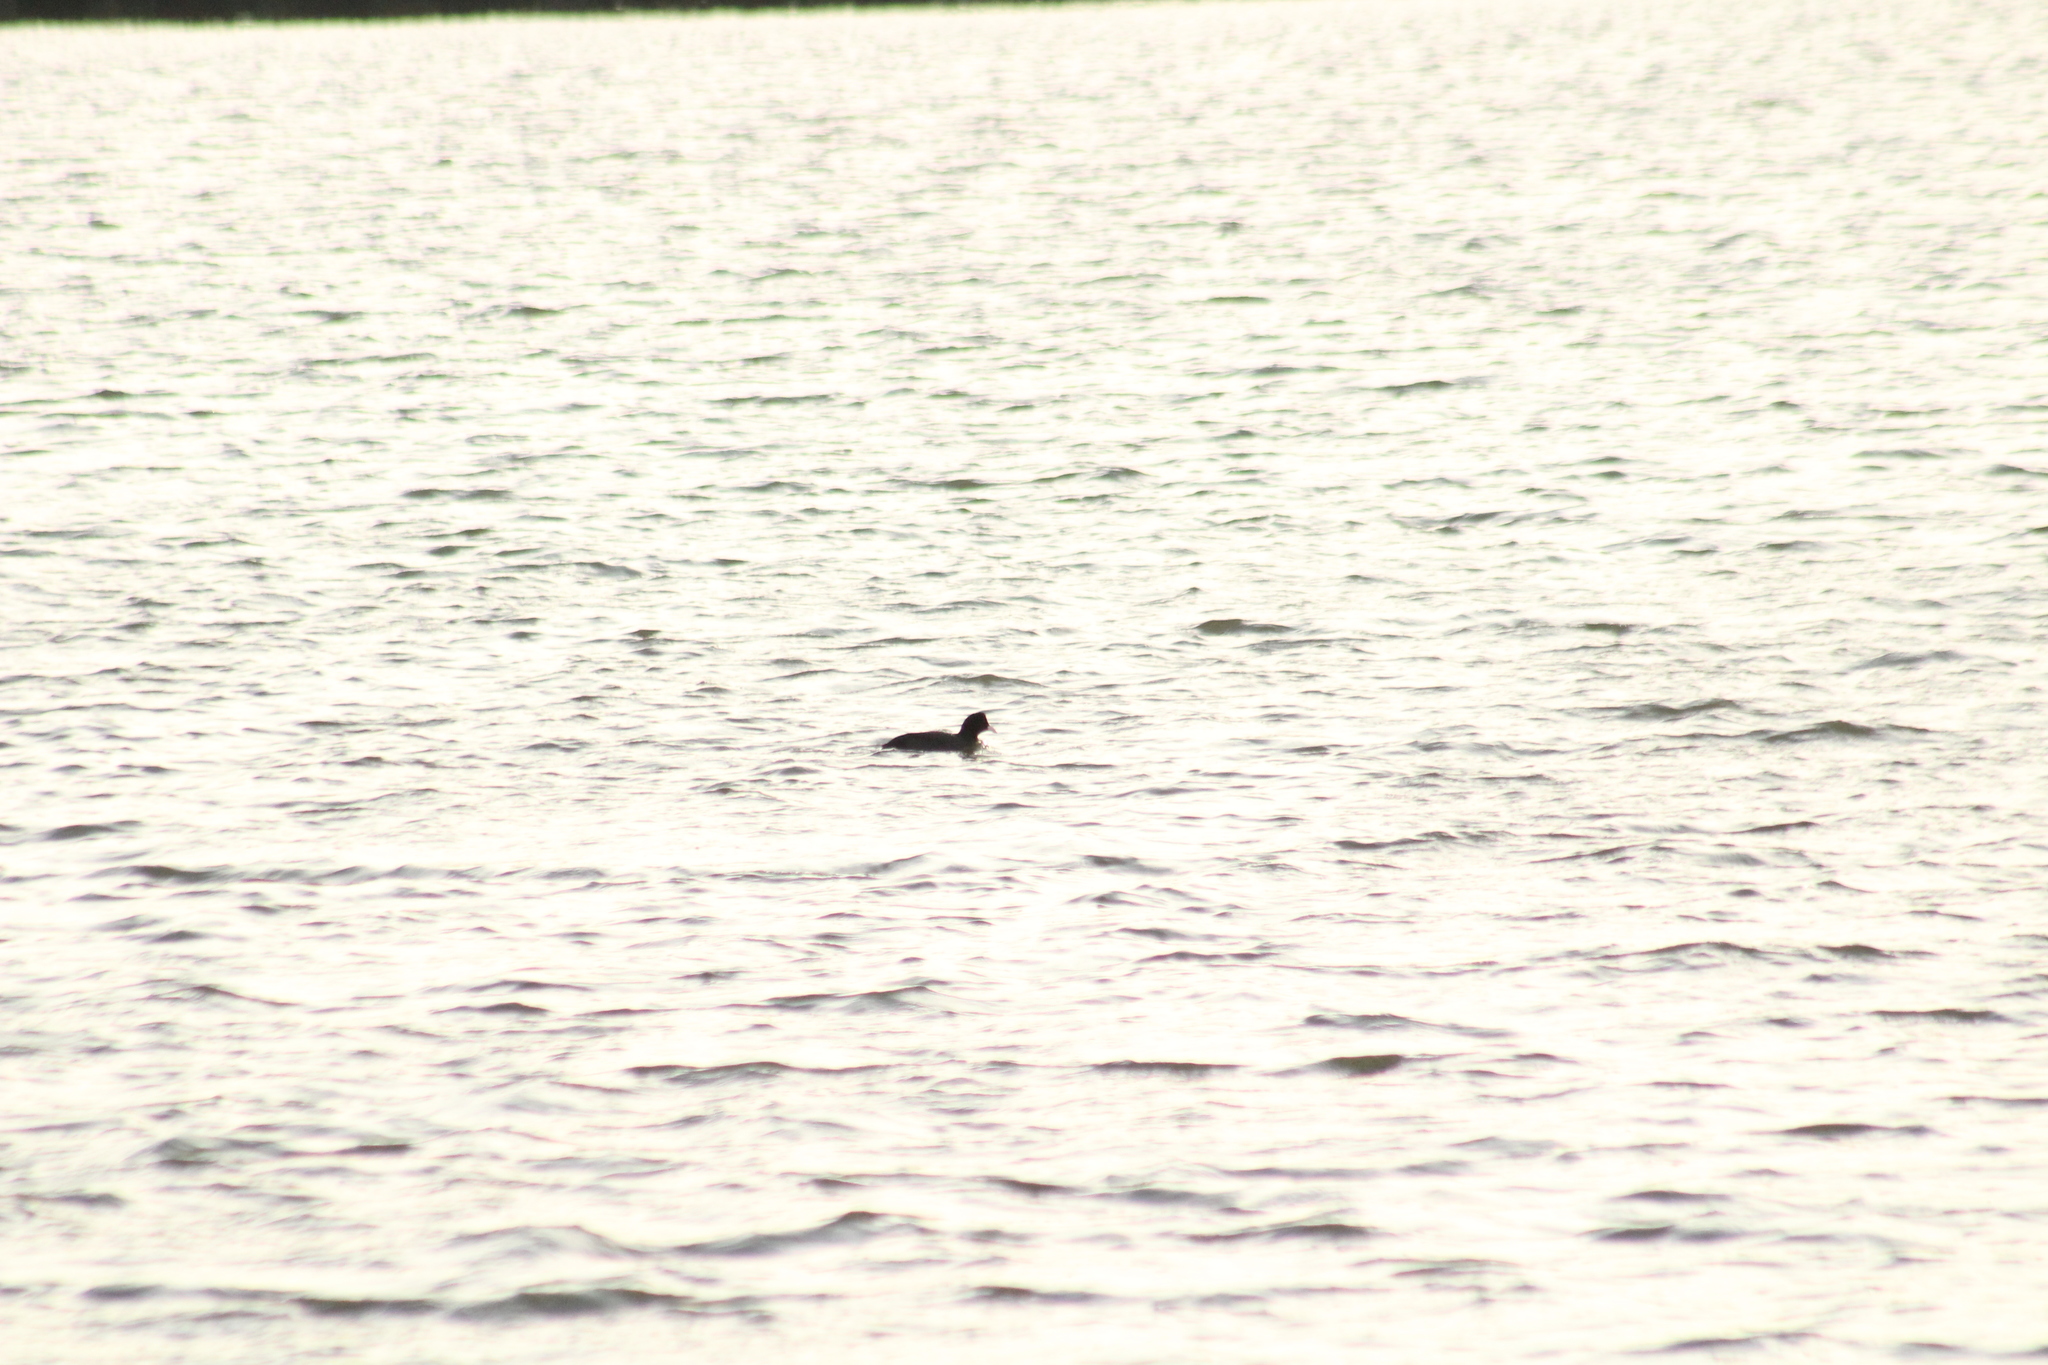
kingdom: Animalia
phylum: Chordata
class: Aves
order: Gruiformes
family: Rallidae
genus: Fulica
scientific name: Fulica atra
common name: Eurasian coot
